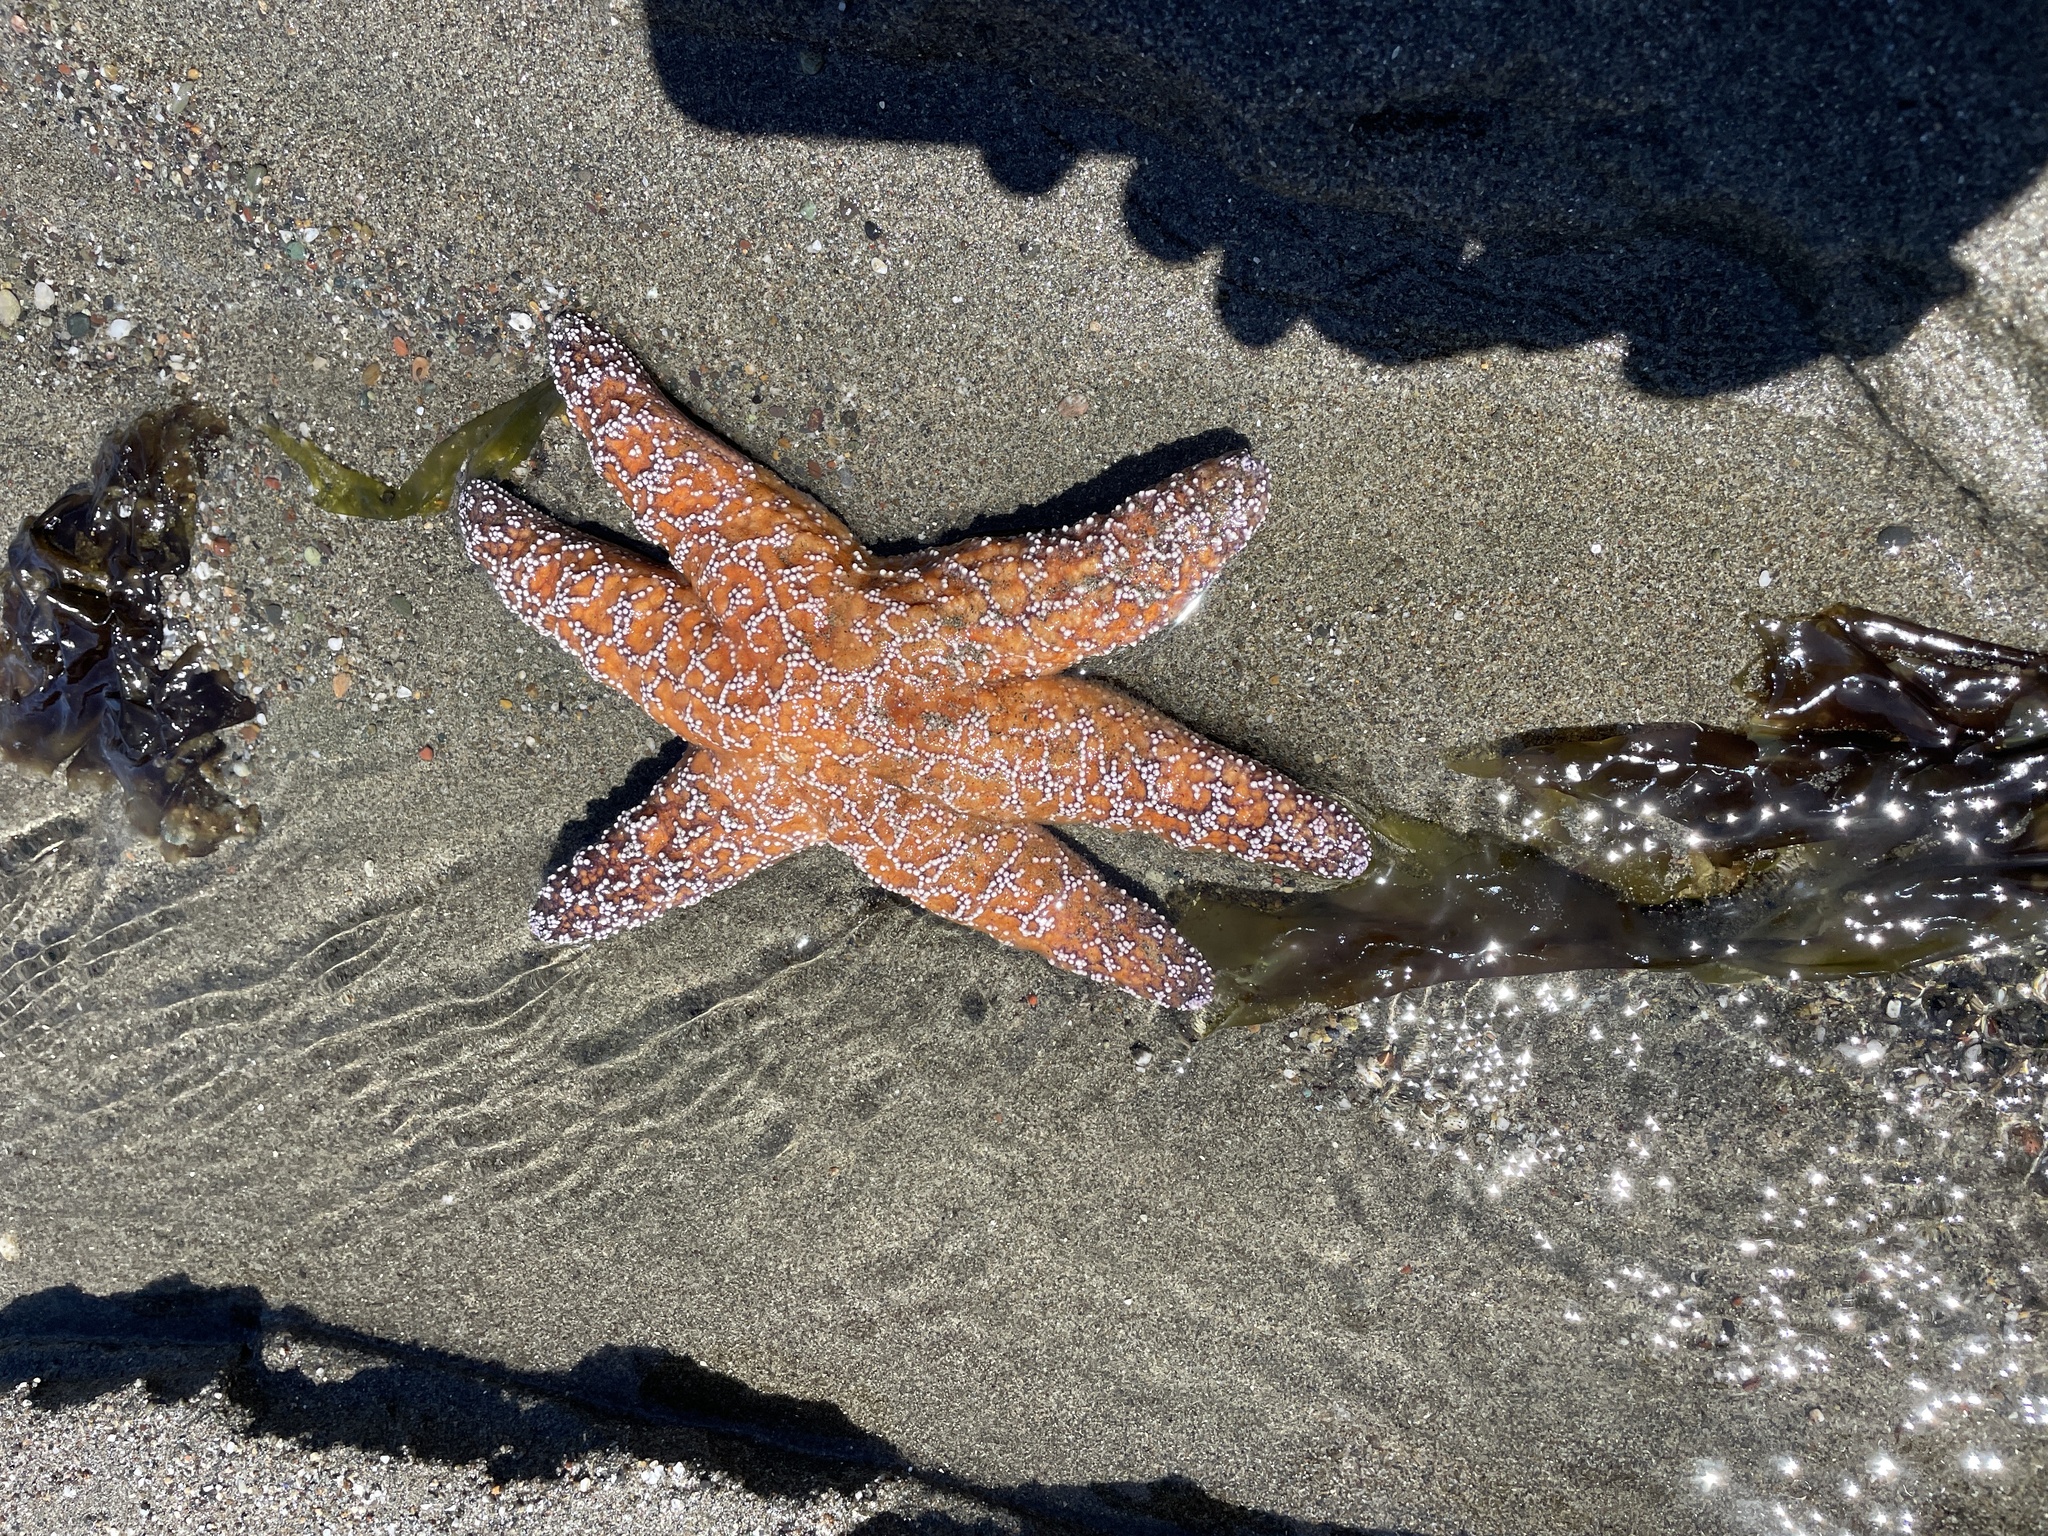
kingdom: Animalia
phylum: Echinodermata
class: Asteroidea
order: Forcipulatida
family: Asteriidae
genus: Pisaster
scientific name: Pisaster ochraceus
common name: Ochre stars
